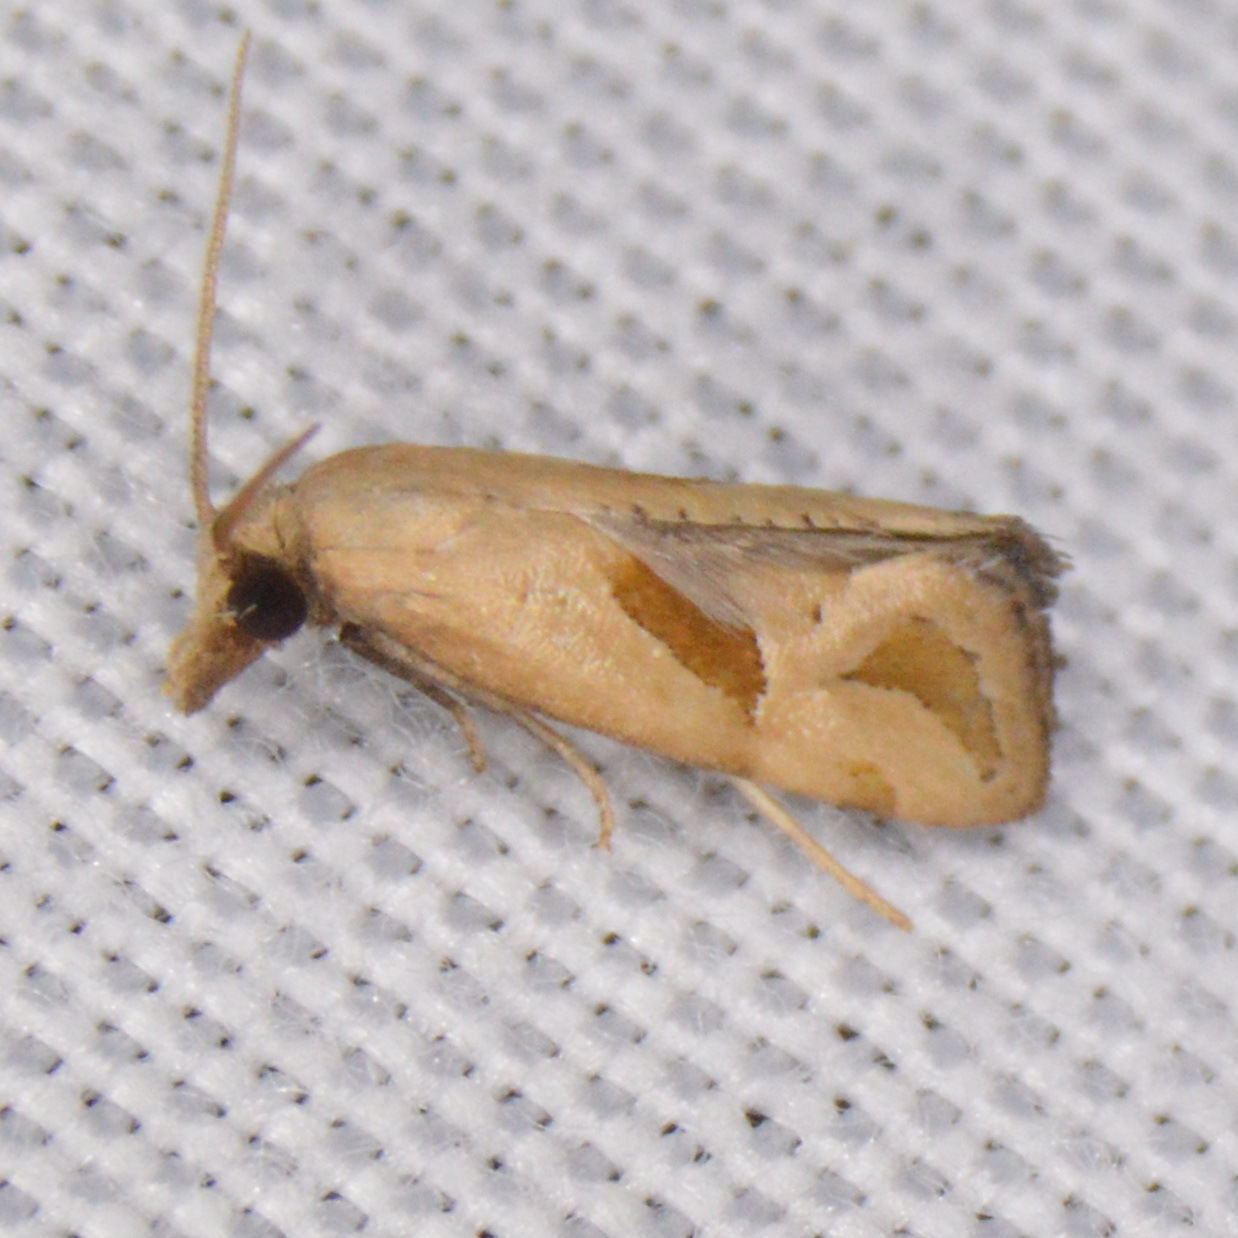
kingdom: Animalia
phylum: Arthropoda
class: Insecta
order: Lepidoptera
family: Tortricidae
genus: Eugnosta
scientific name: Eugnosta bimaculana
